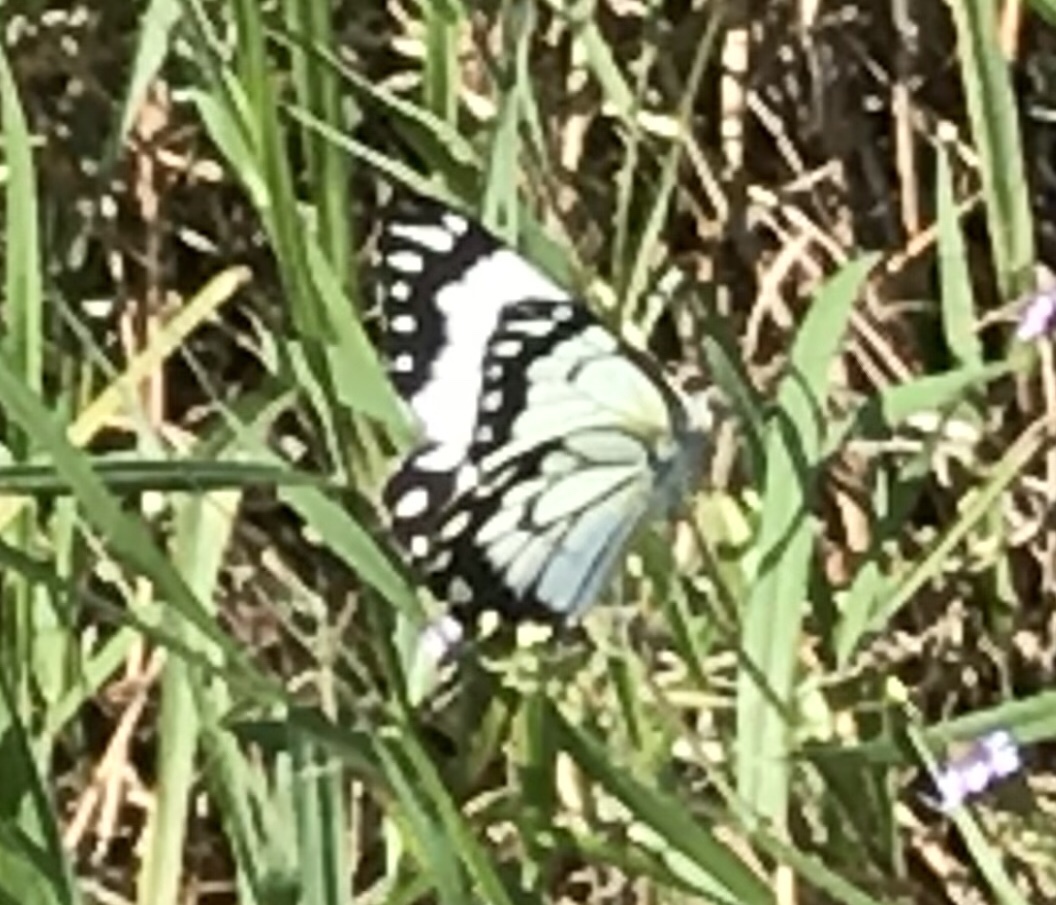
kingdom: Animalia
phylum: Arthropoda
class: Insecta
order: Lepidoptera
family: Pieridae
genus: Belenois
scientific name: Belenois java
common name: Caper white
